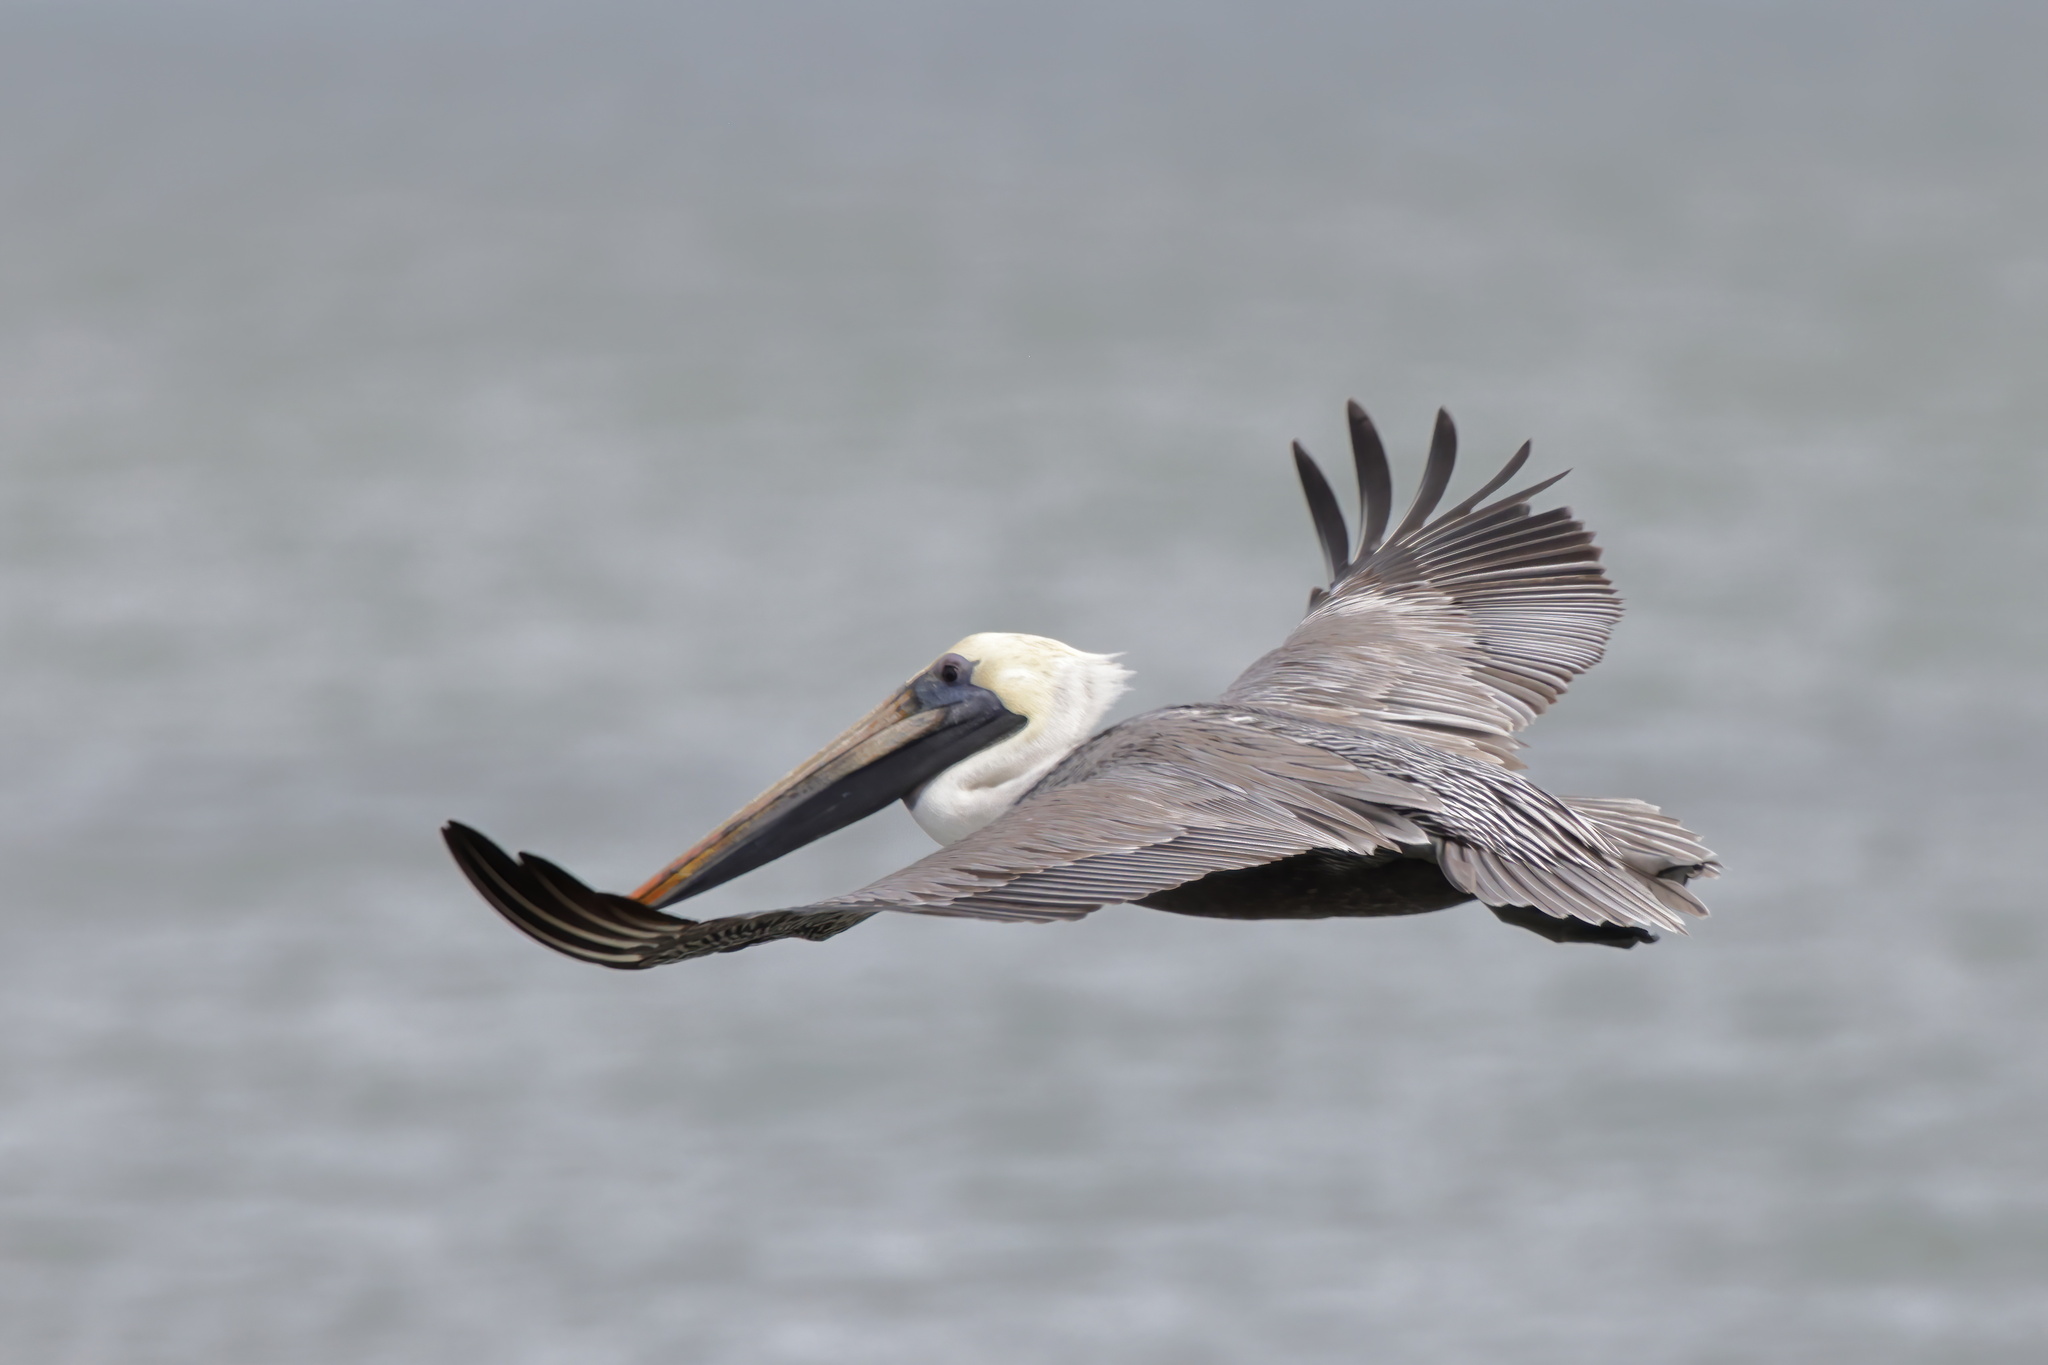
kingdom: Animalia
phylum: Chordata
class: Aves
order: Pelecaniformes
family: Pelecanidae
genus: Pelecanus
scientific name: Pelecanus occidentalis
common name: Brown pelican
